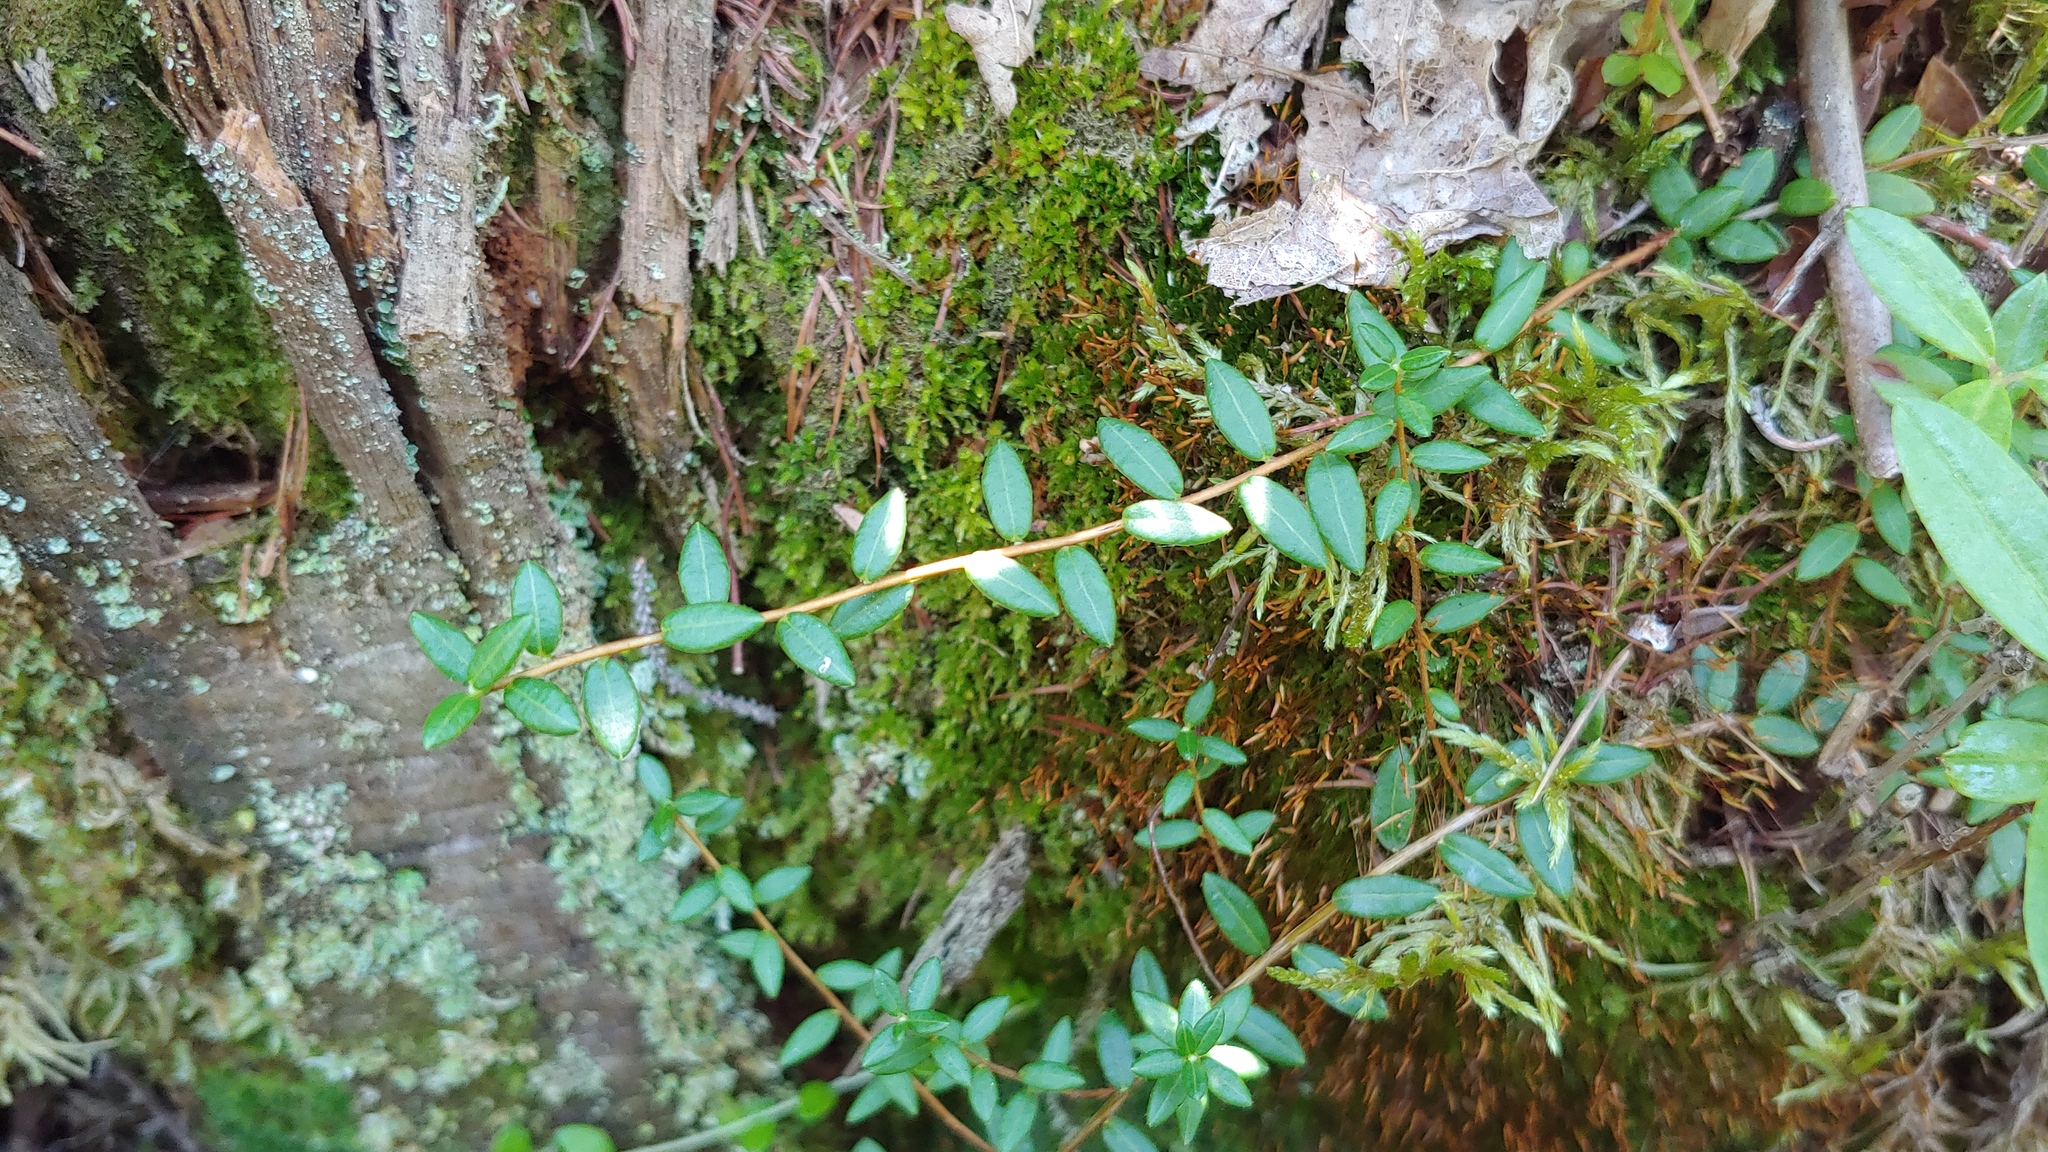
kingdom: Plantae
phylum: Tracheophyta
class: Magnoliopsida
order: Ericales
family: Ericaceae
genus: Vaccinium
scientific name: Vaccinium oxycoccos
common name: Cranberry
